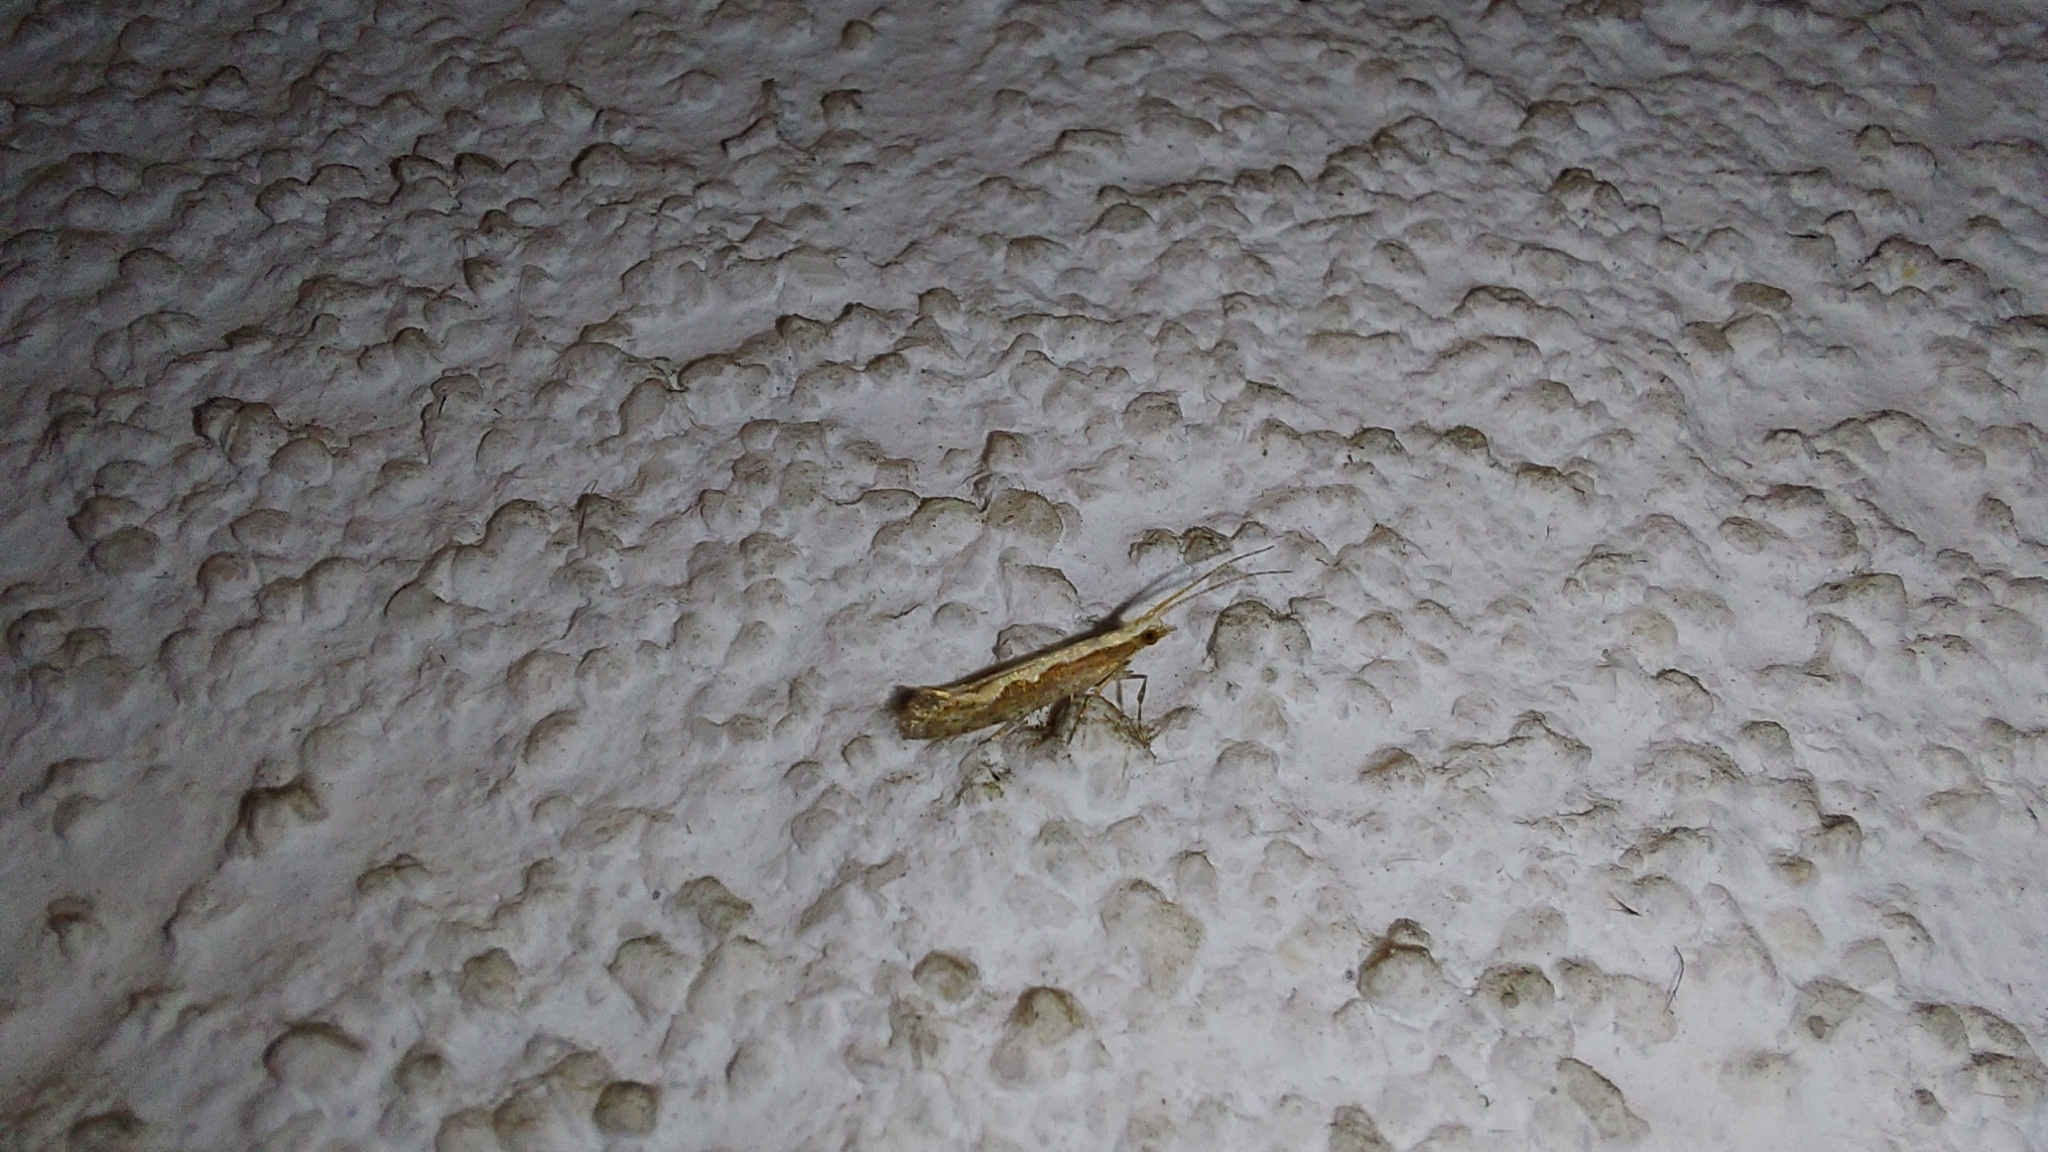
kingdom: Animalia
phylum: Arthropoda
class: Insecta
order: Lepidoptera
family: Plutellidae
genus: Plutella
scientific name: Plutella xylostella
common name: Diamond-back moth
